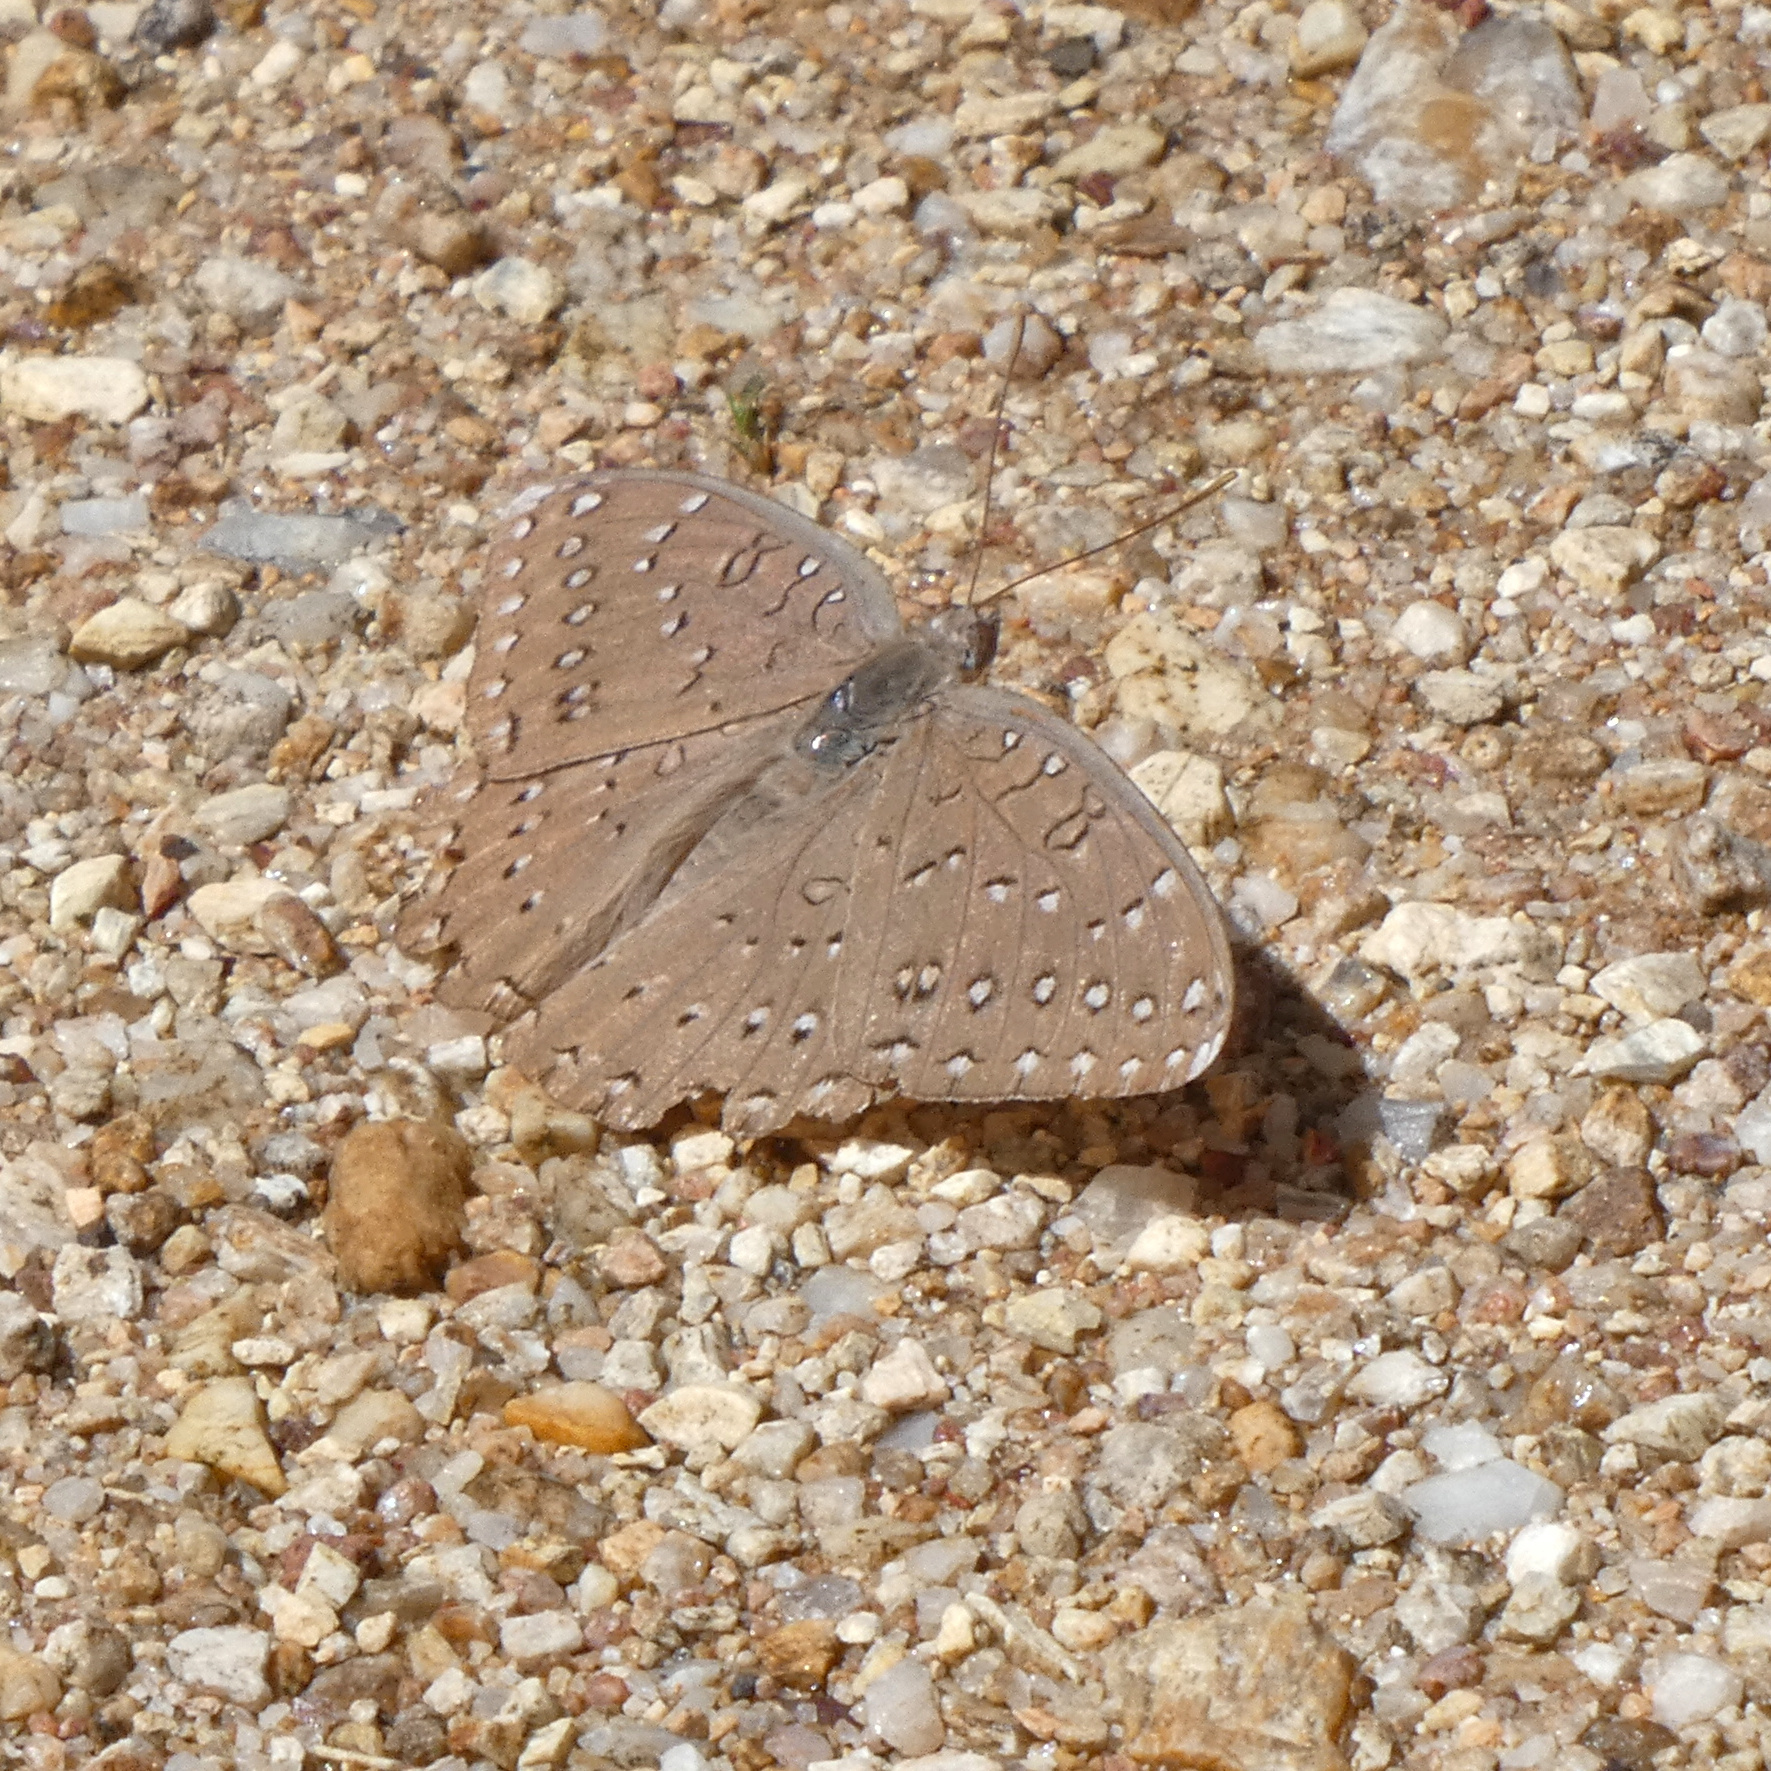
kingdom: Animalia
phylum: Arthropoda
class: Insecta
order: Lepidoptera
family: Nymphalidae
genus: Hamanumida
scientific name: Hamanumida daedalus
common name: Guinea-fowl butterfly
